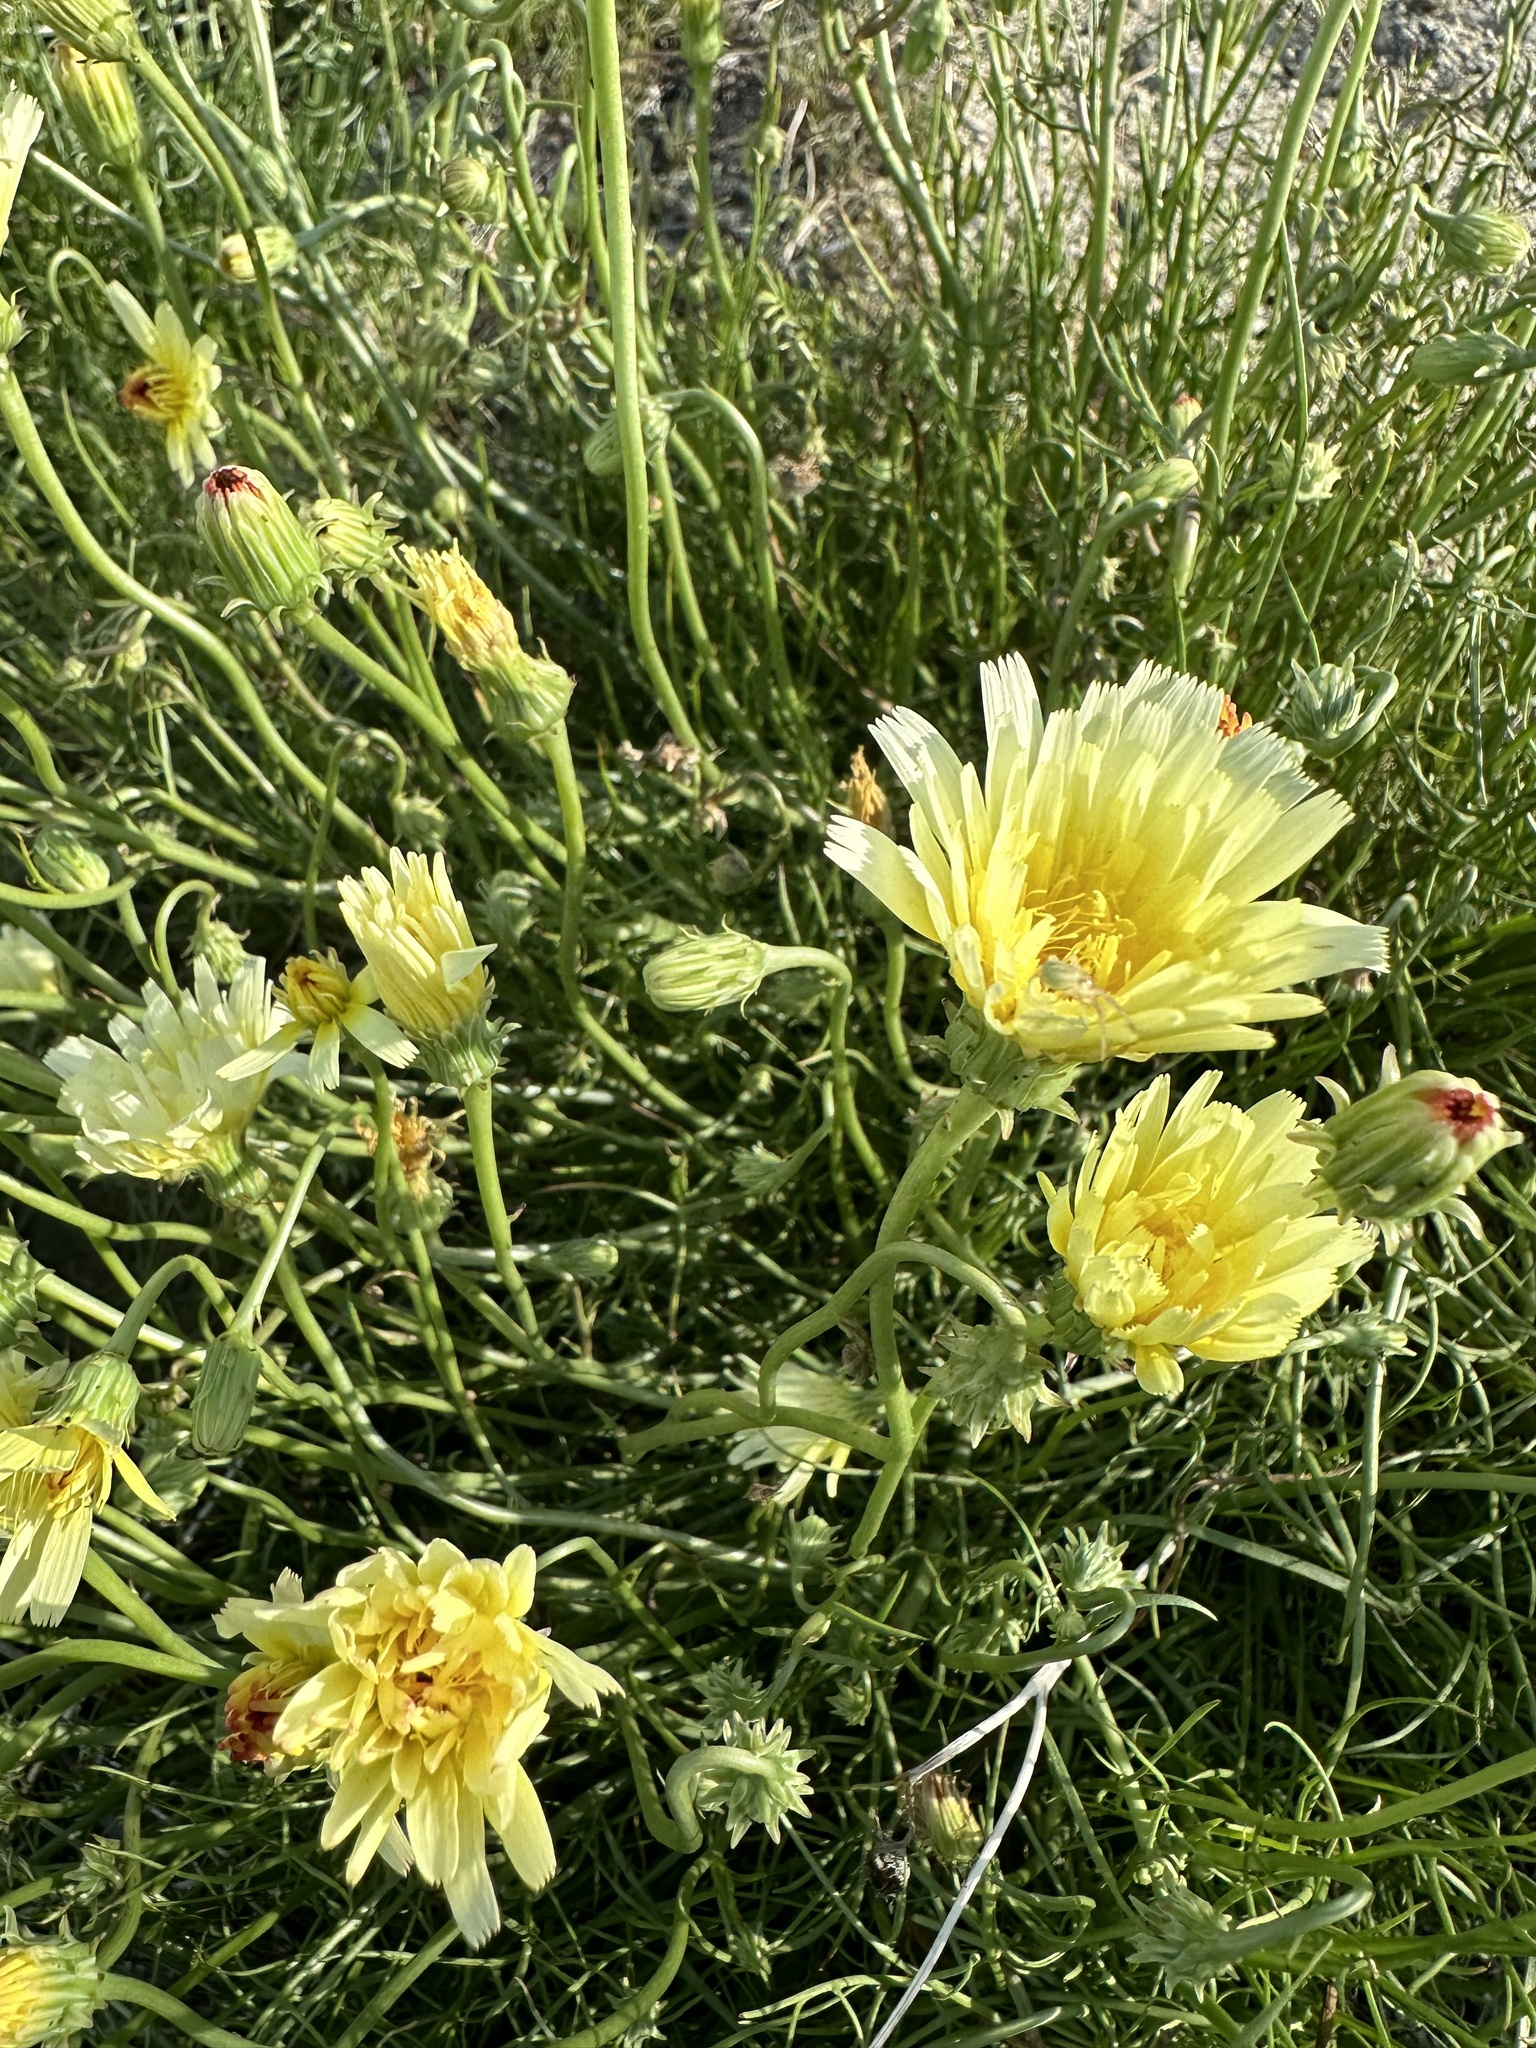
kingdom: Plantae
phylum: Tracheophyta
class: Magnoliopsida
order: Asterales
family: Asteraceae
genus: Malacothrix
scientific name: Malacothrix glabrata
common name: Smooth desert-dandelion
